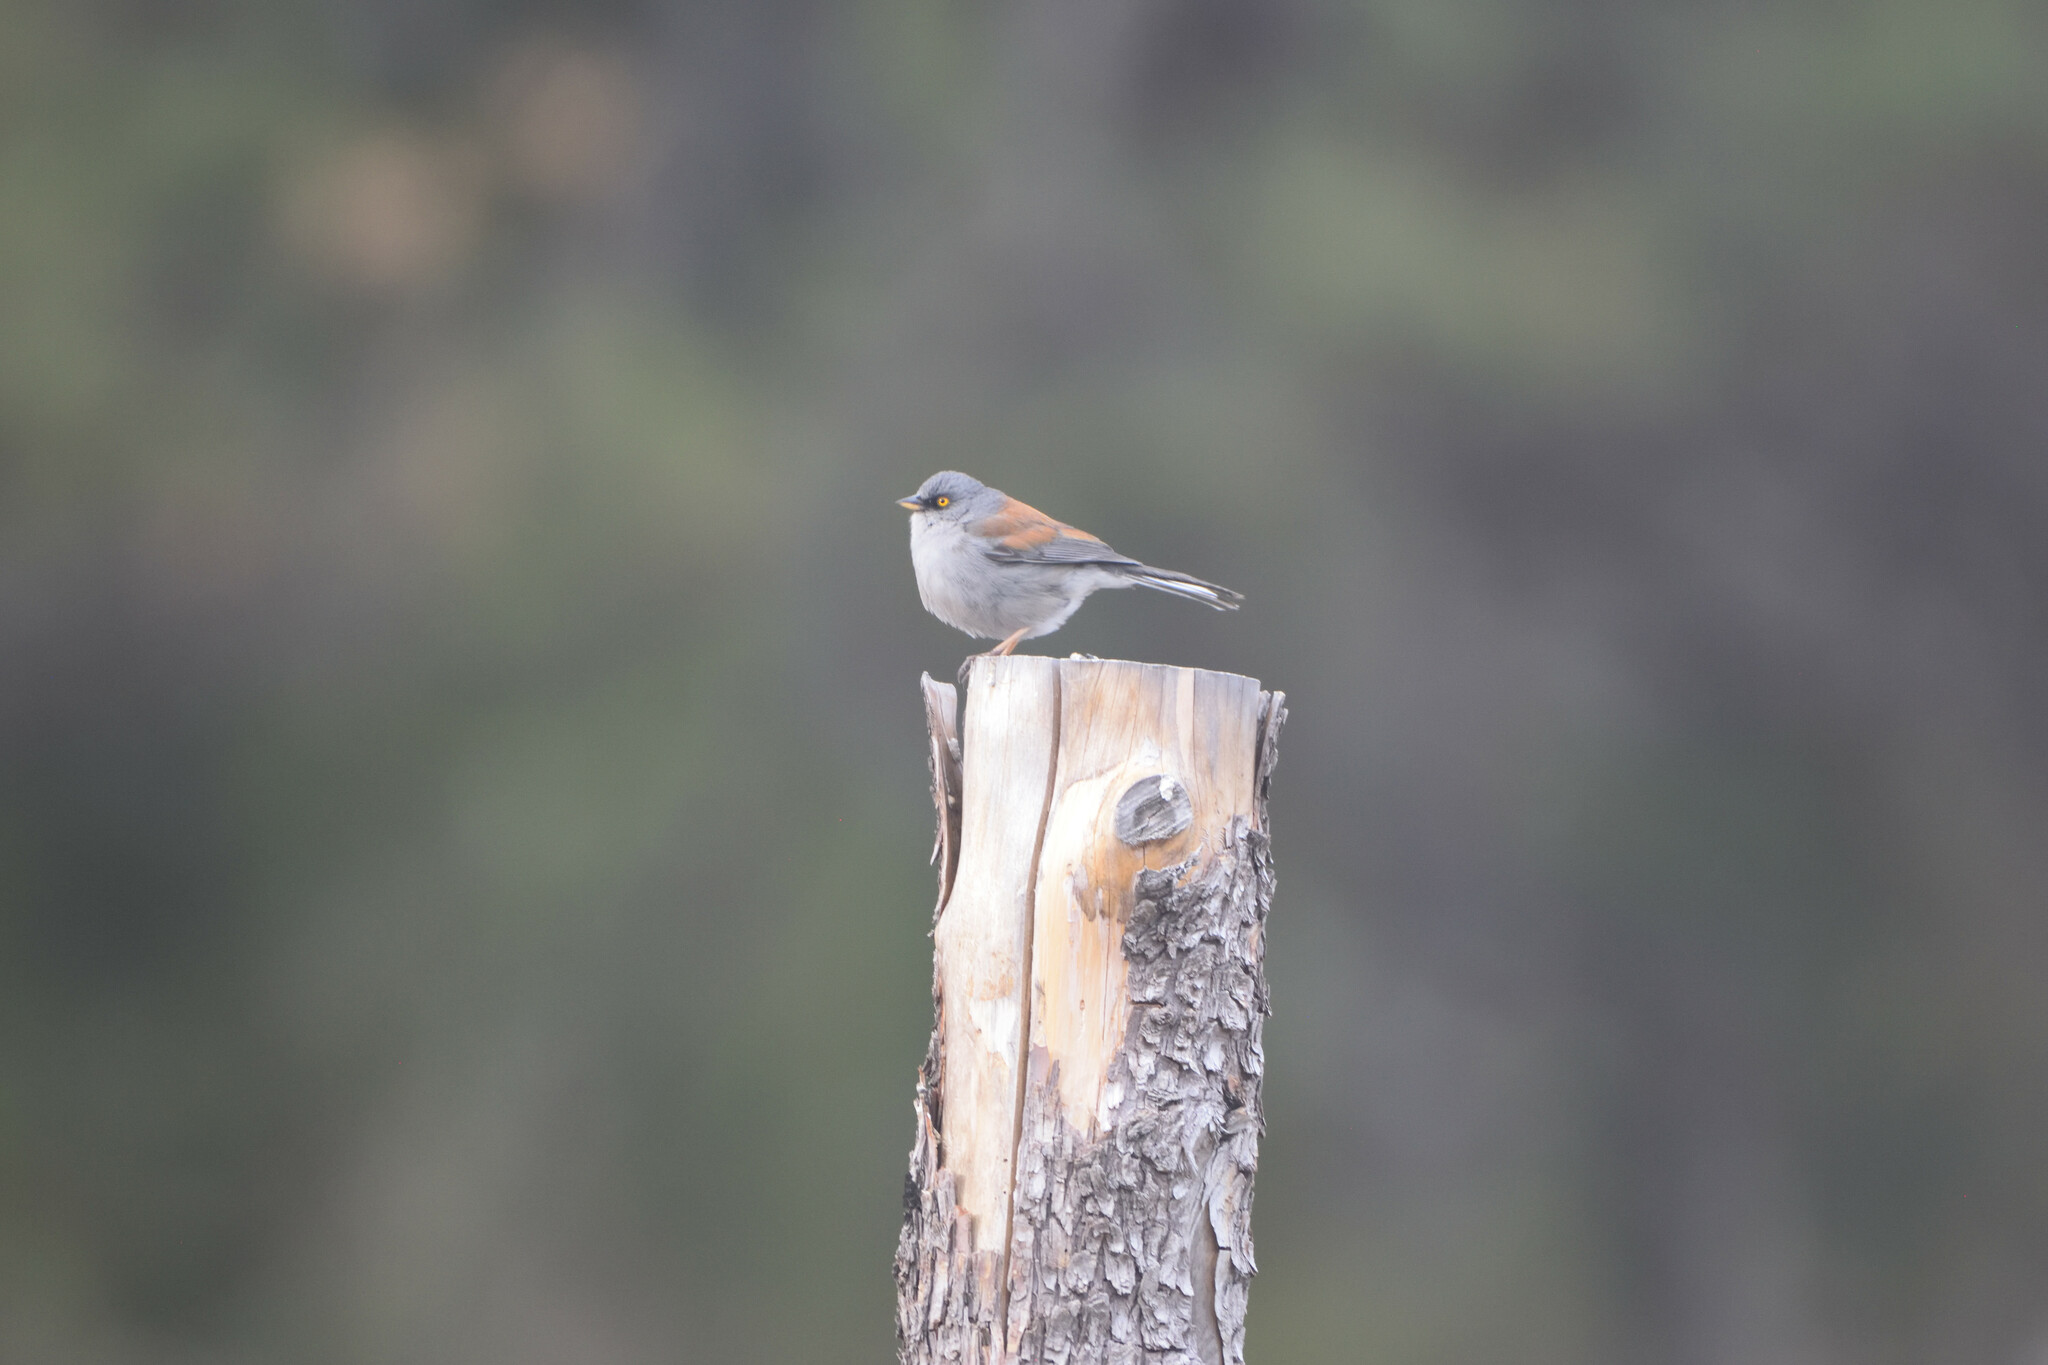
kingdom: Animalia
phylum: Chordata
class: Aves
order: Passeriformes
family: Passerellidae
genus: Junco
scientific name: Junco phaeonotus
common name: Yellow-eyed junco
